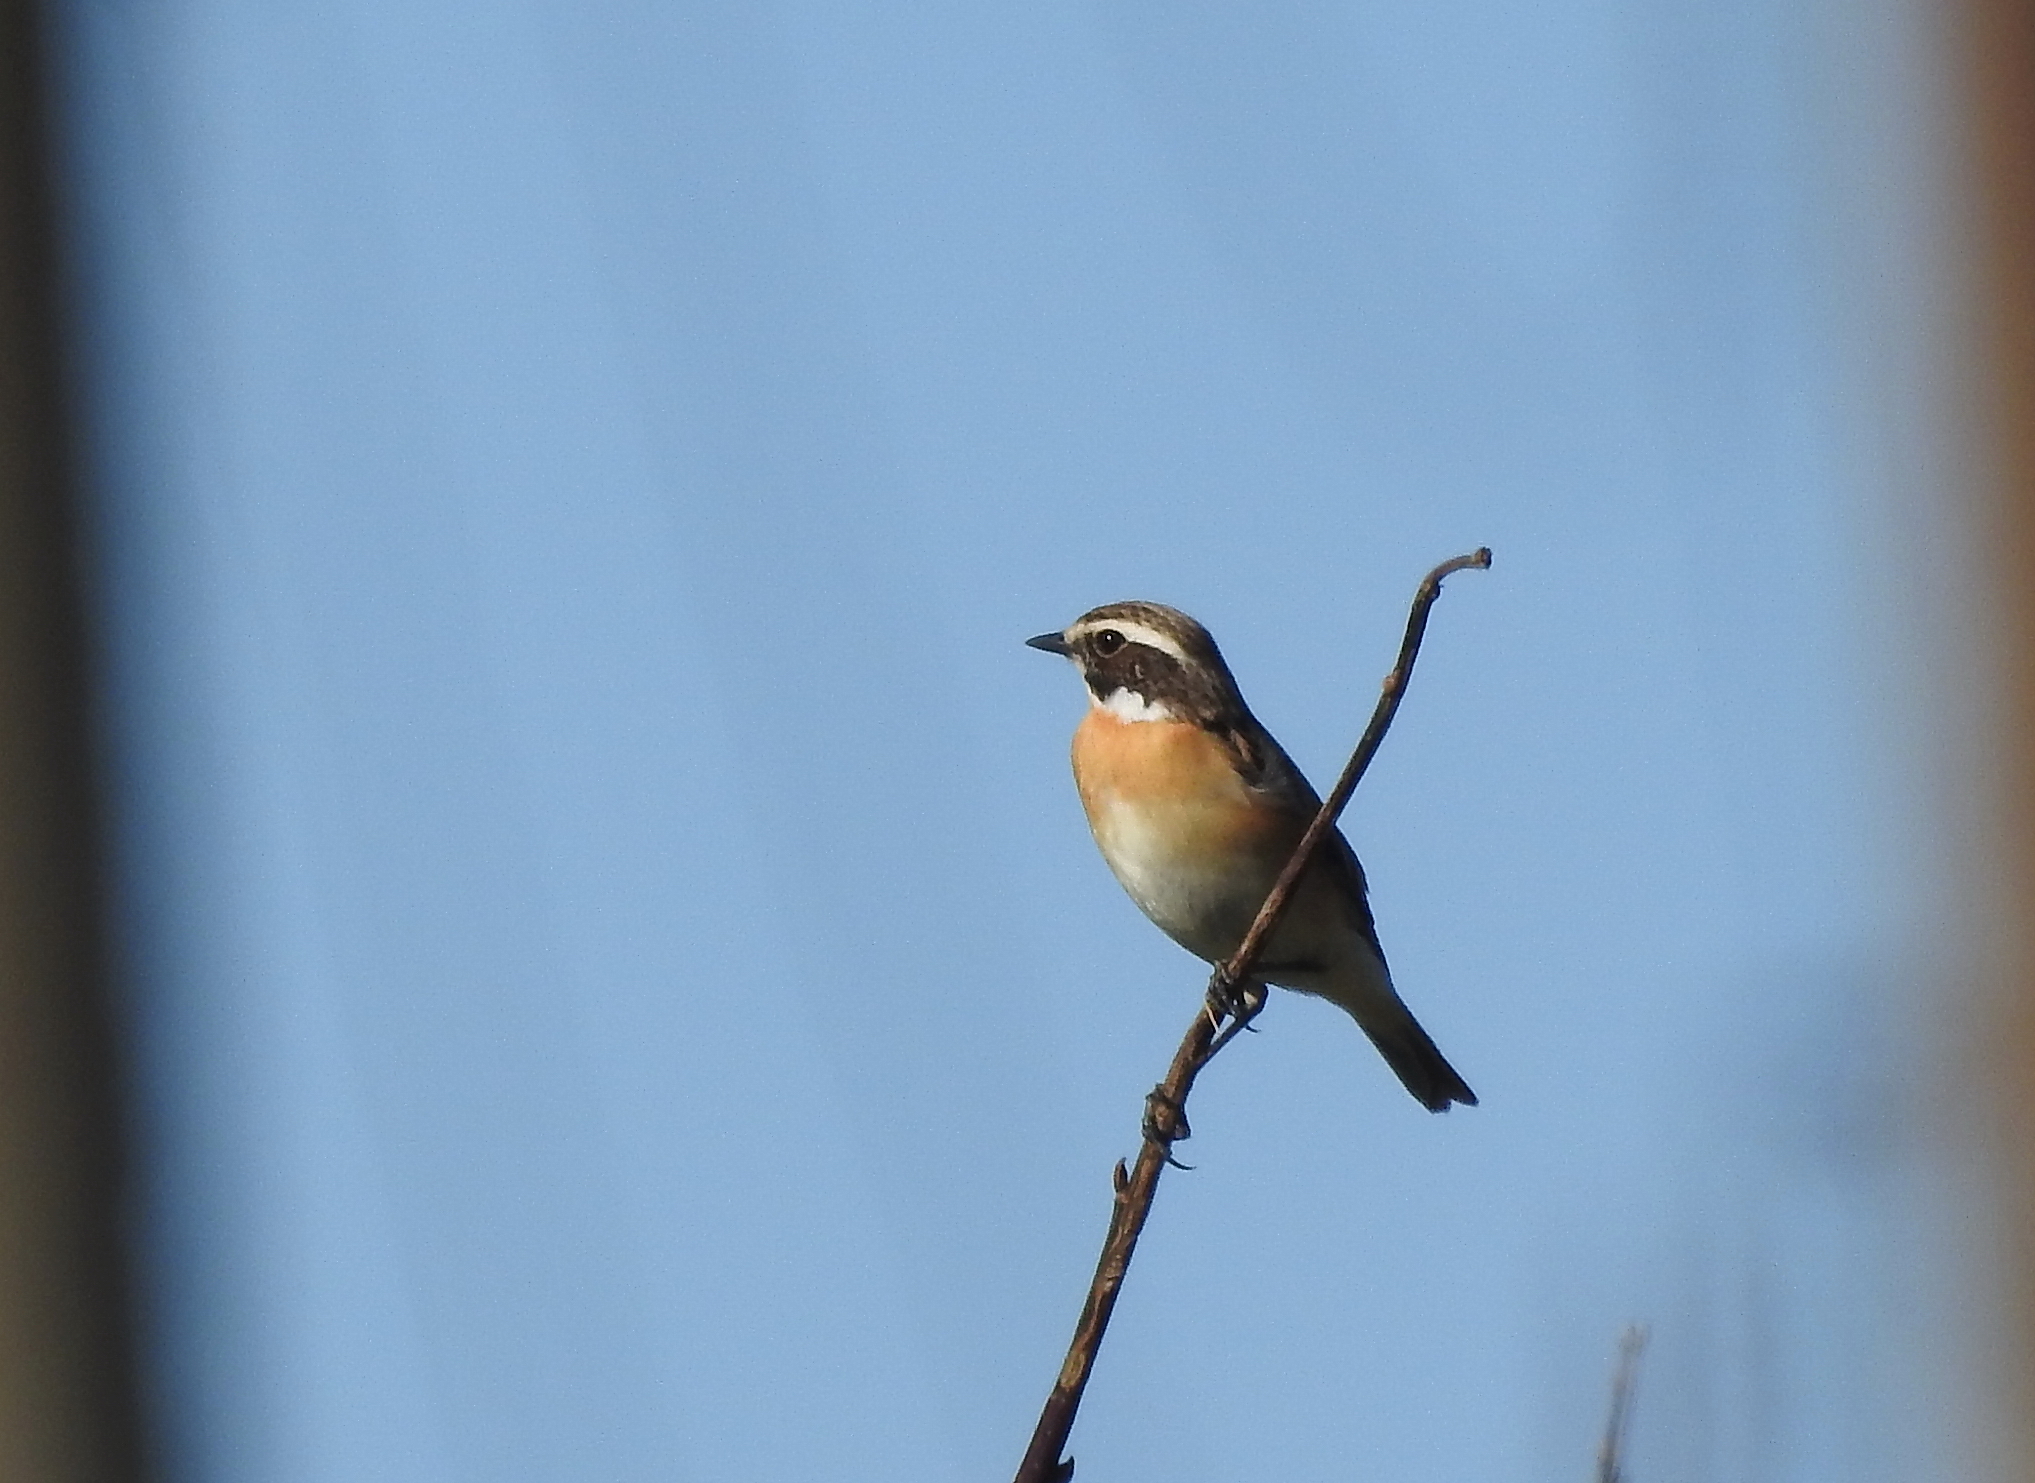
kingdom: Animalia
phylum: Chordata
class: Aves
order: Passeriformes
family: Muscicapidae
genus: Saxicola
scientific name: Saxicola rubetra
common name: Whinchat
